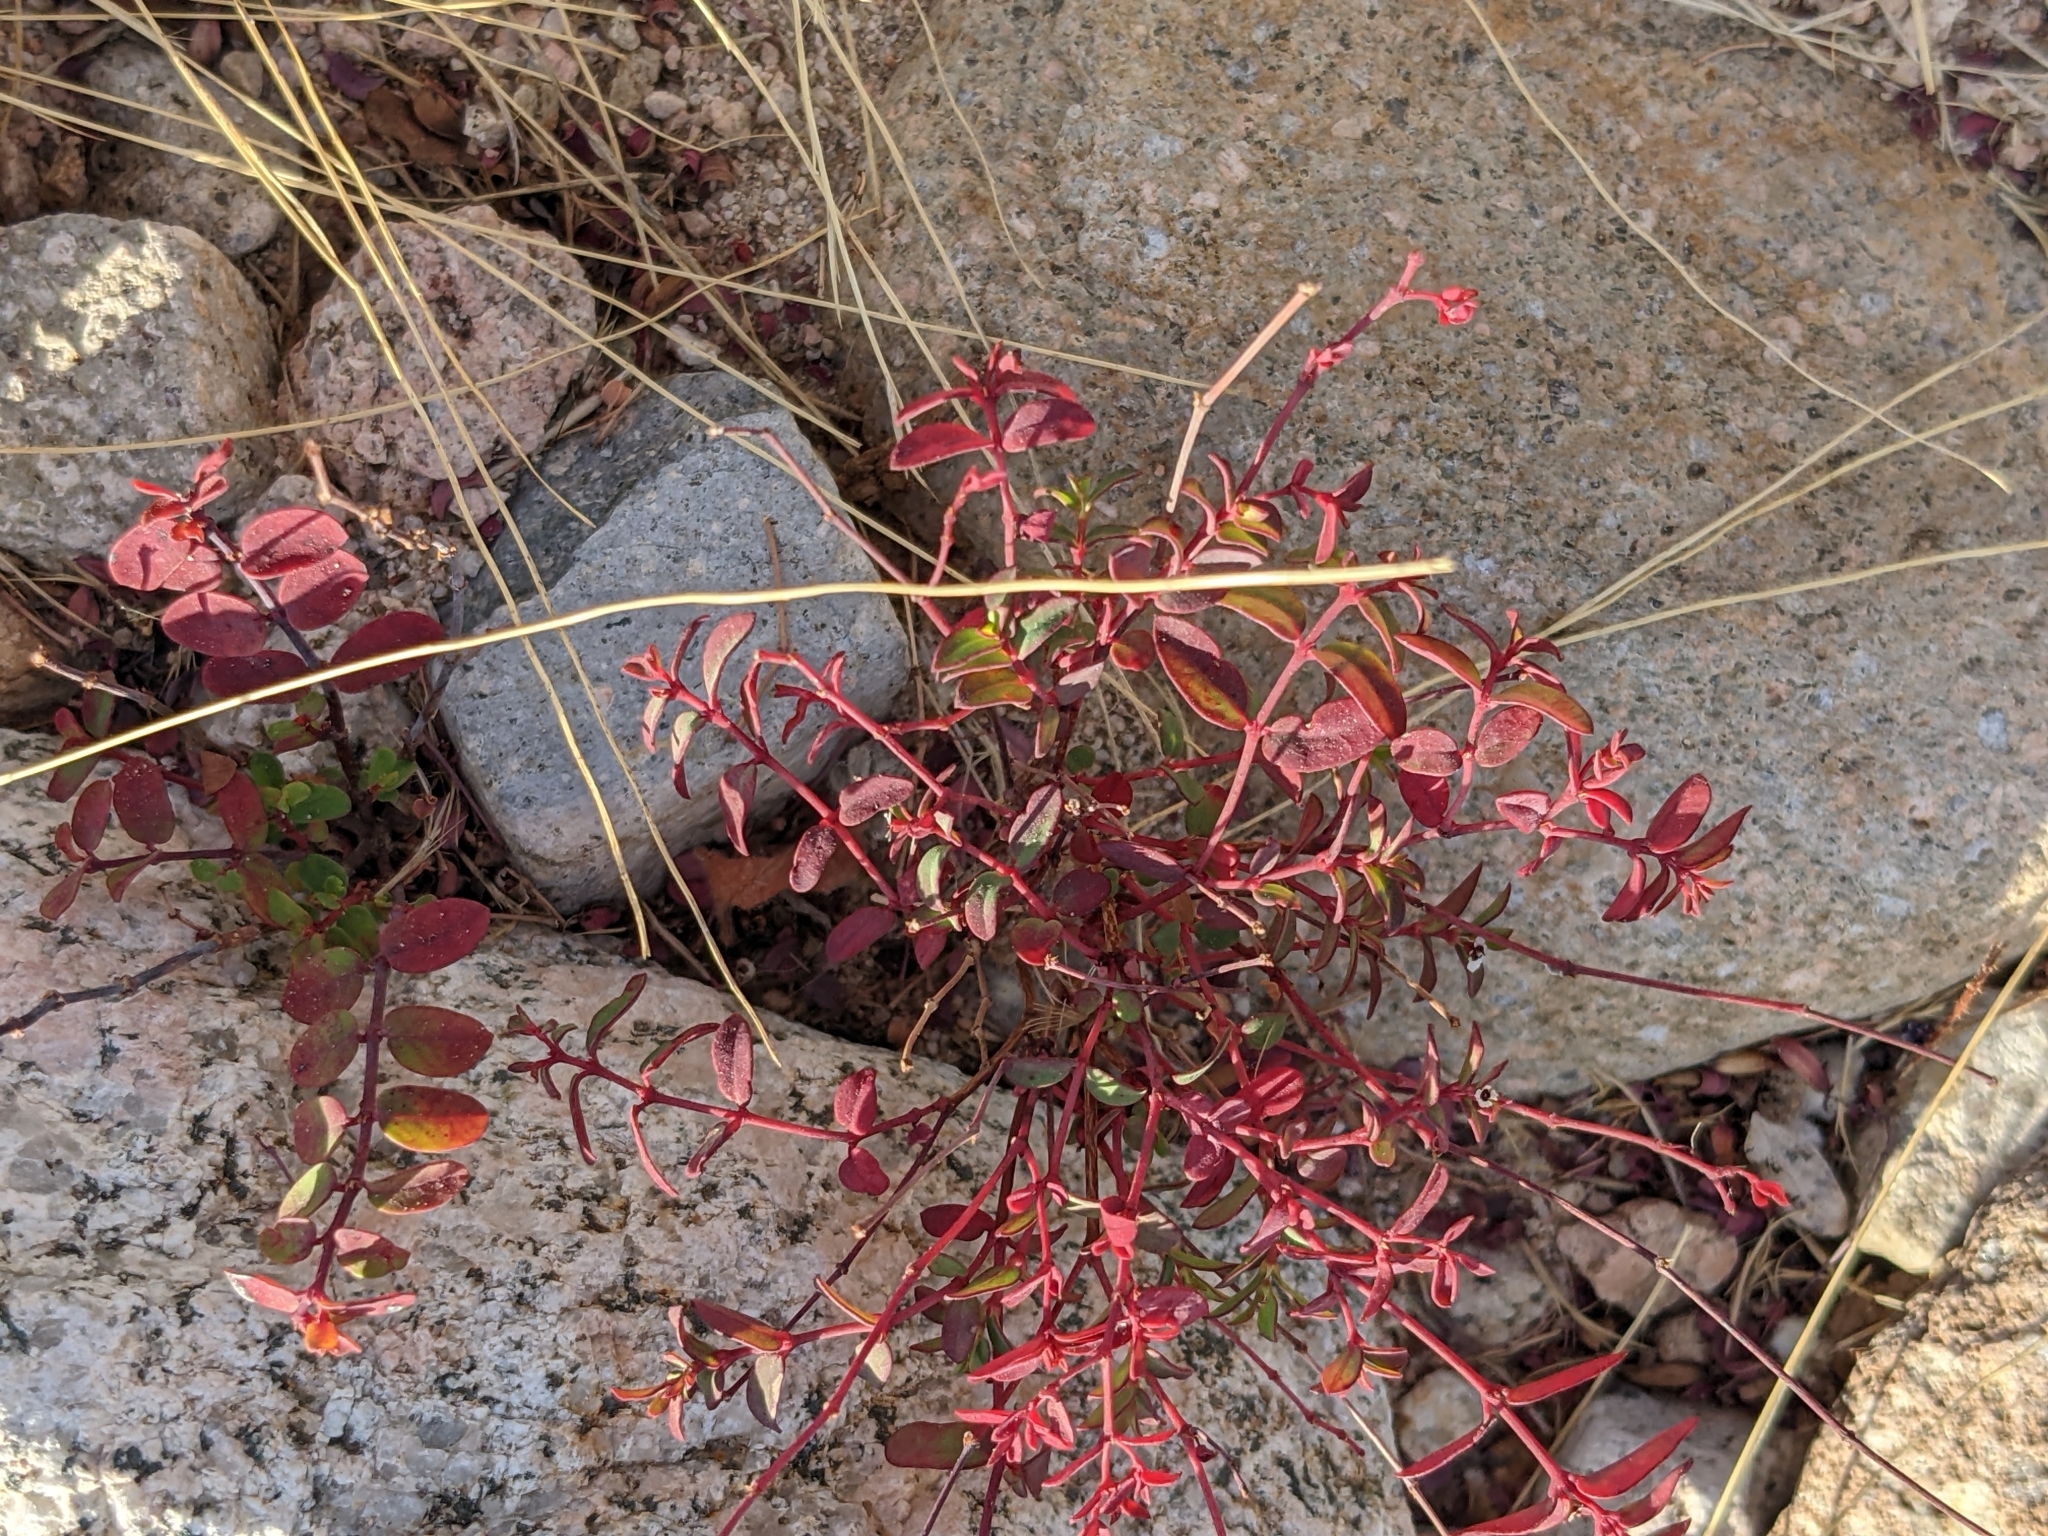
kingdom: Plantae
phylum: Tracheophyta
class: Magnoliopsida
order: Malpighiales
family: Euphorbiaceae
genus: Euphorbia
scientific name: Euphorbia polycarpa
